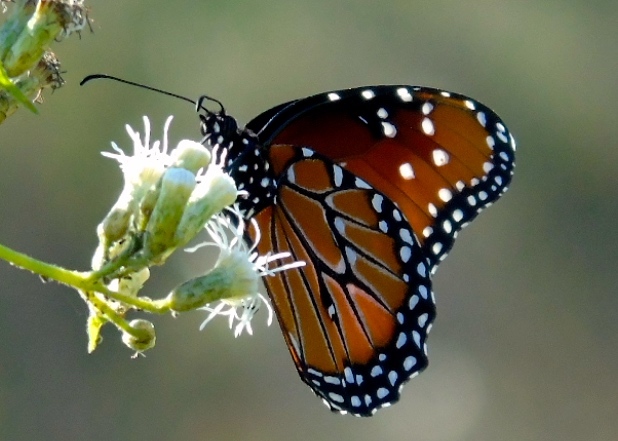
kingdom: Animalia
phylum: Arthropoda
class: Insecta
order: Lepidoptera
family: Nymphalidae
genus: Danaus
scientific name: Danaus gilippus
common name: Queen
